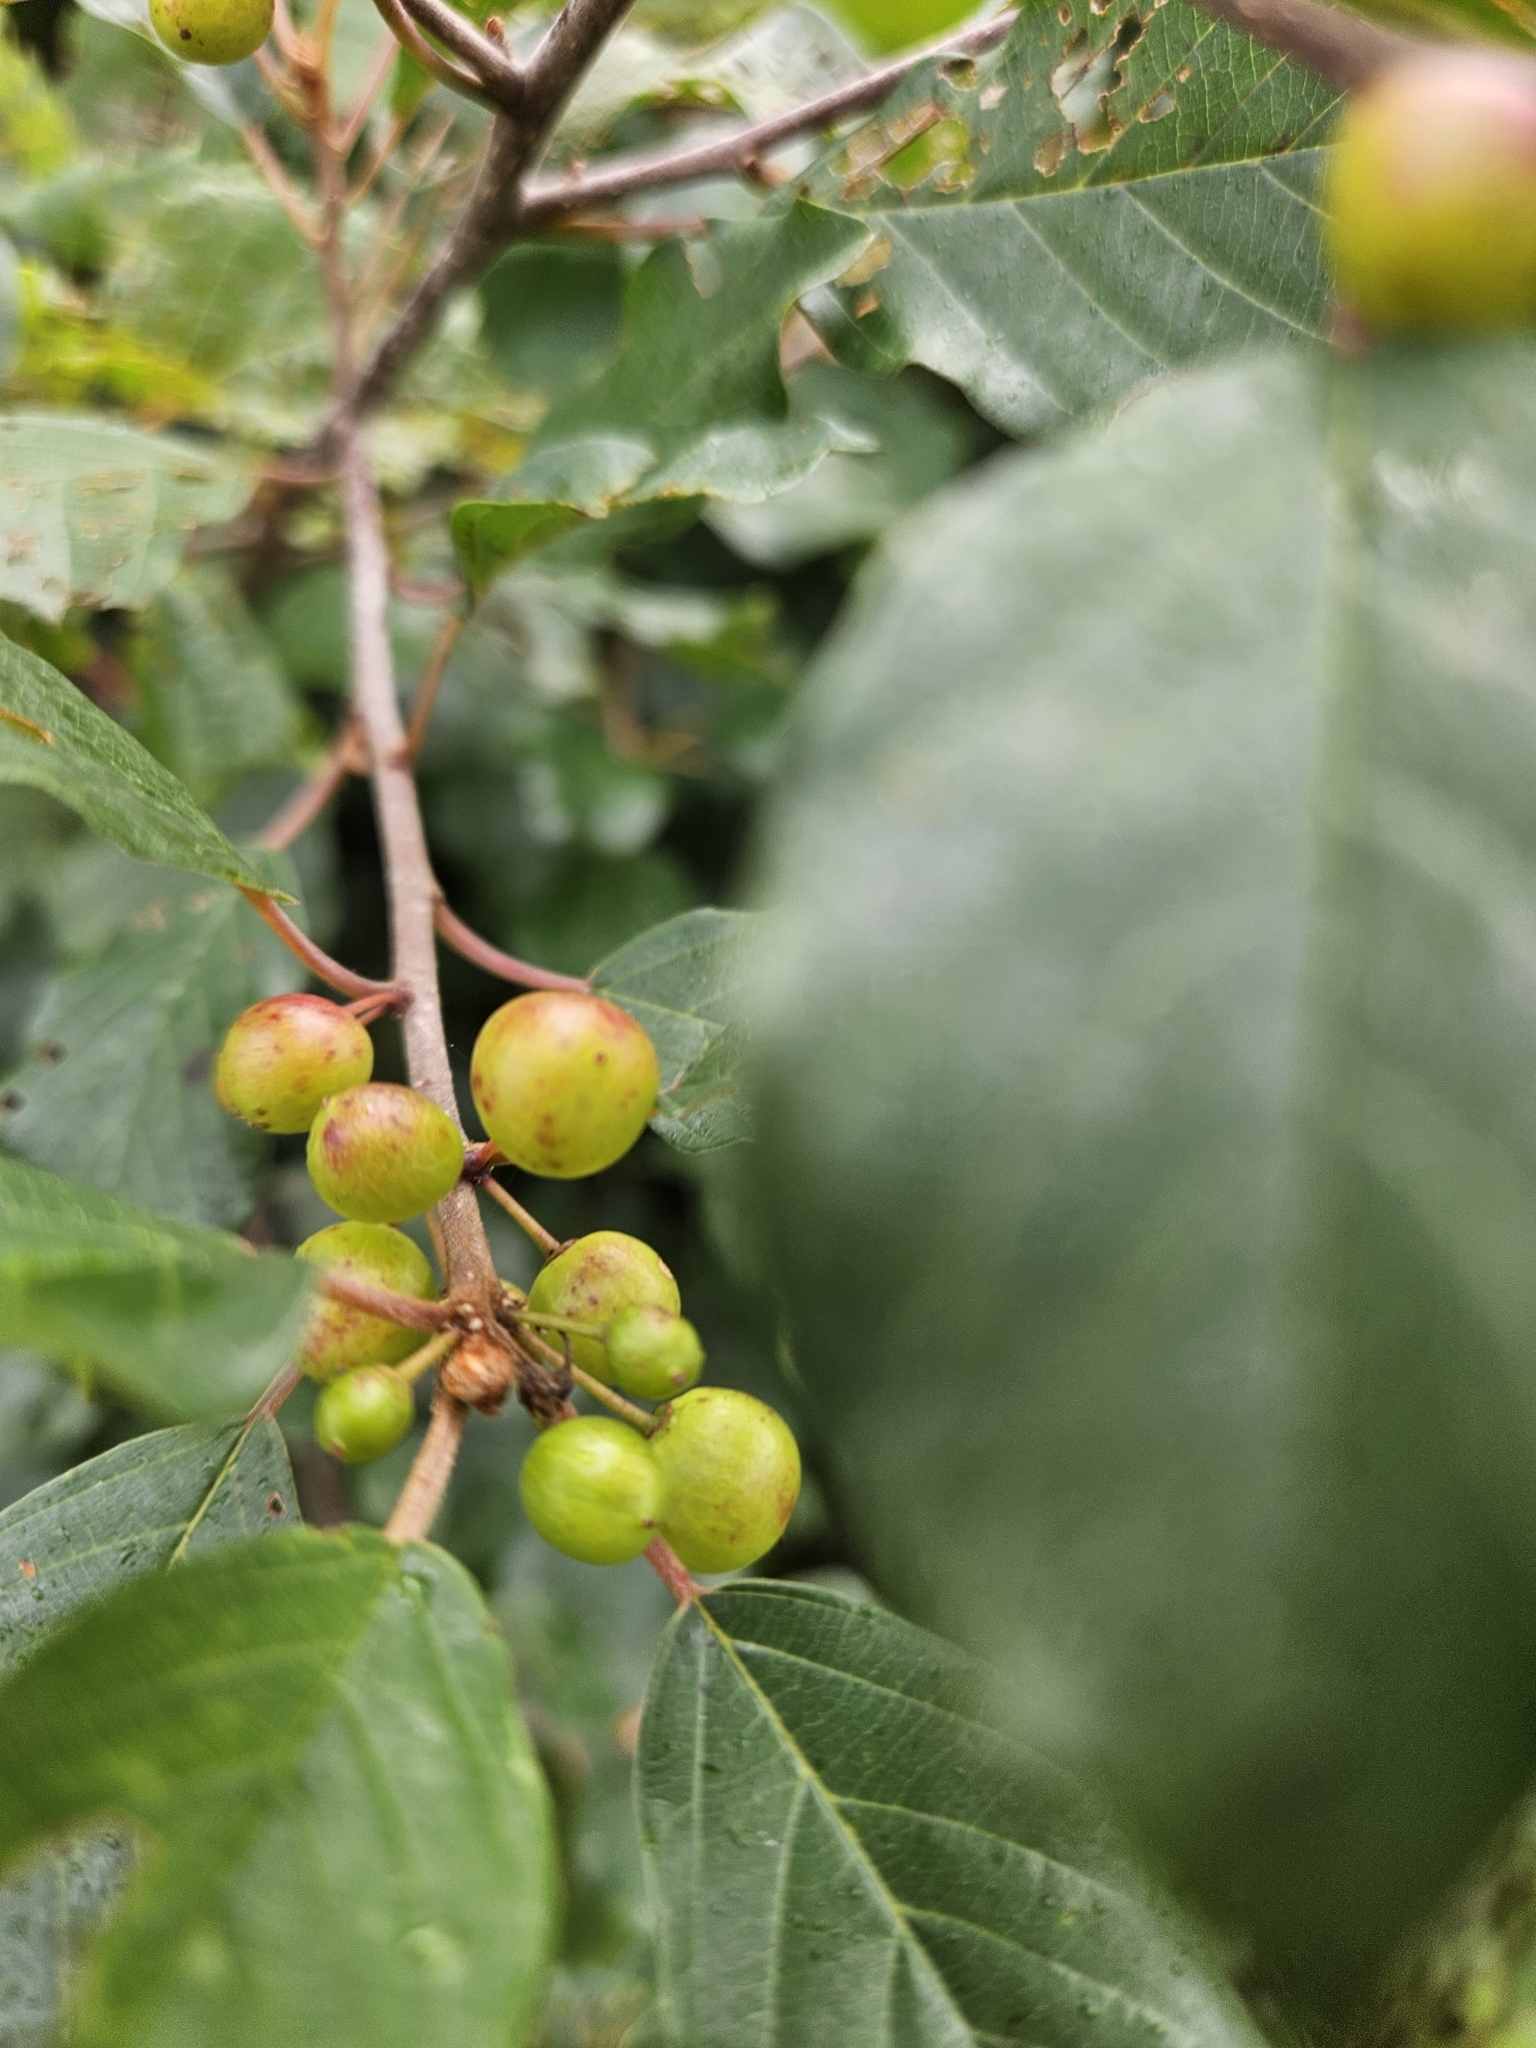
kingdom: Plantae
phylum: Tracheophyta
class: Magnoliopsida
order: Rosales
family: Rhamnaceae
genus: Frangula
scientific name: Frangula alnus
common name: Alder buckthorn
